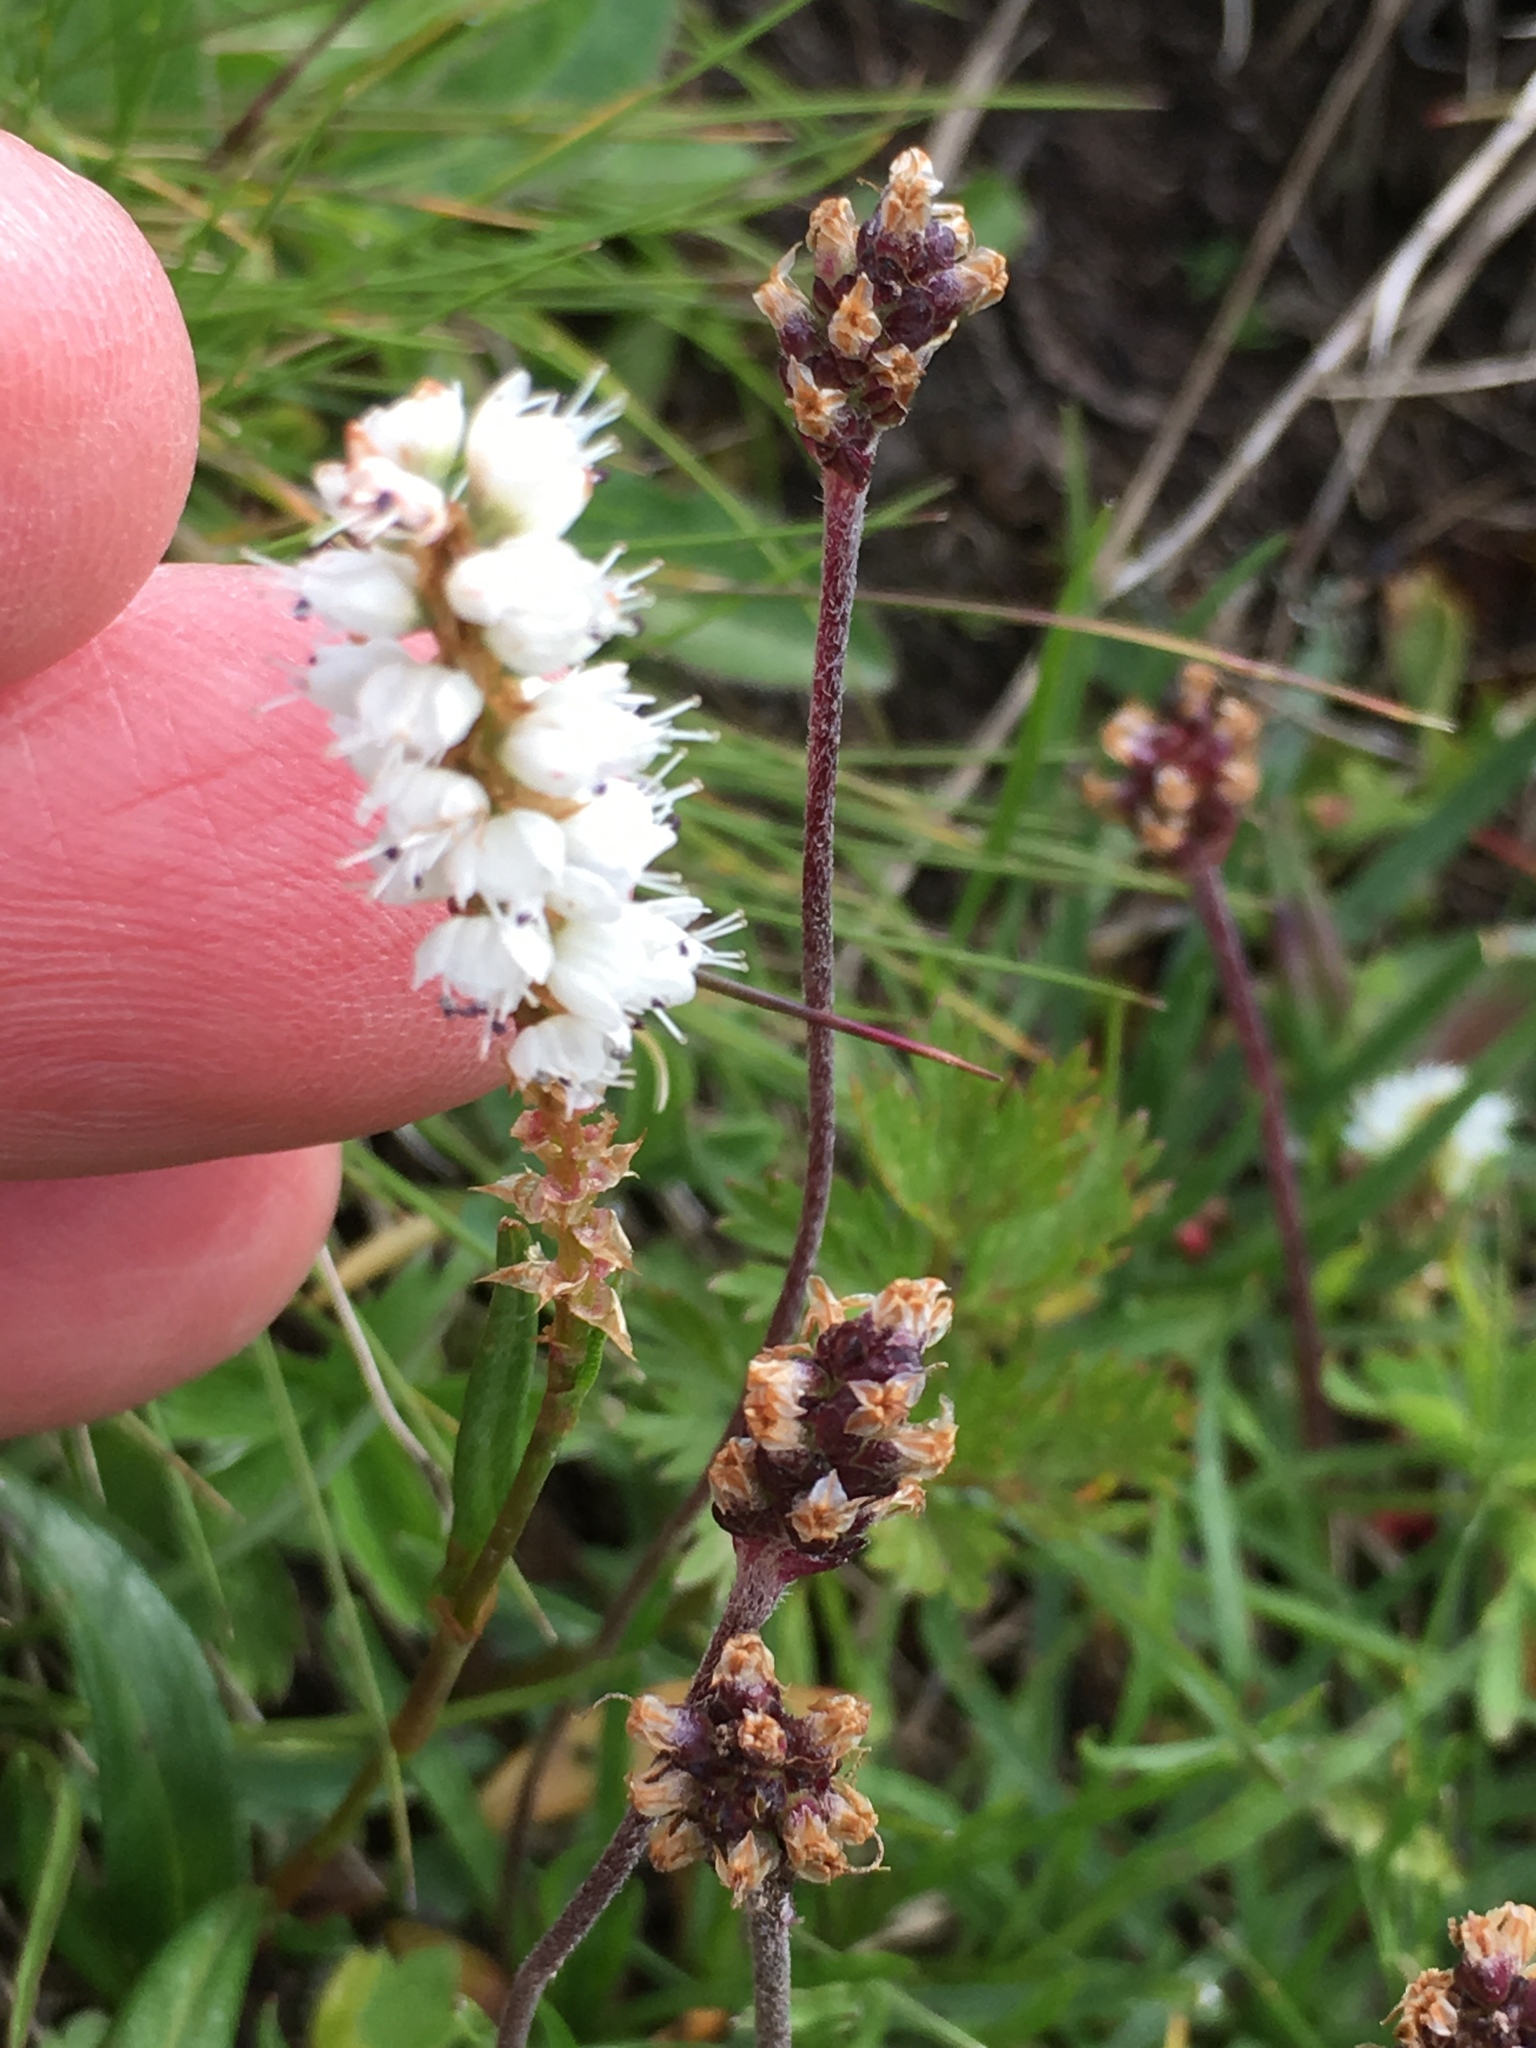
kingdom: Plantae
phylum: Tracheophyta
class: Magnoliopsida
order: Caryophyllales
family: Polygonaceae
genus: Bistorta
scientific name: Bistorta vivipara
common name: Alpine bistort
